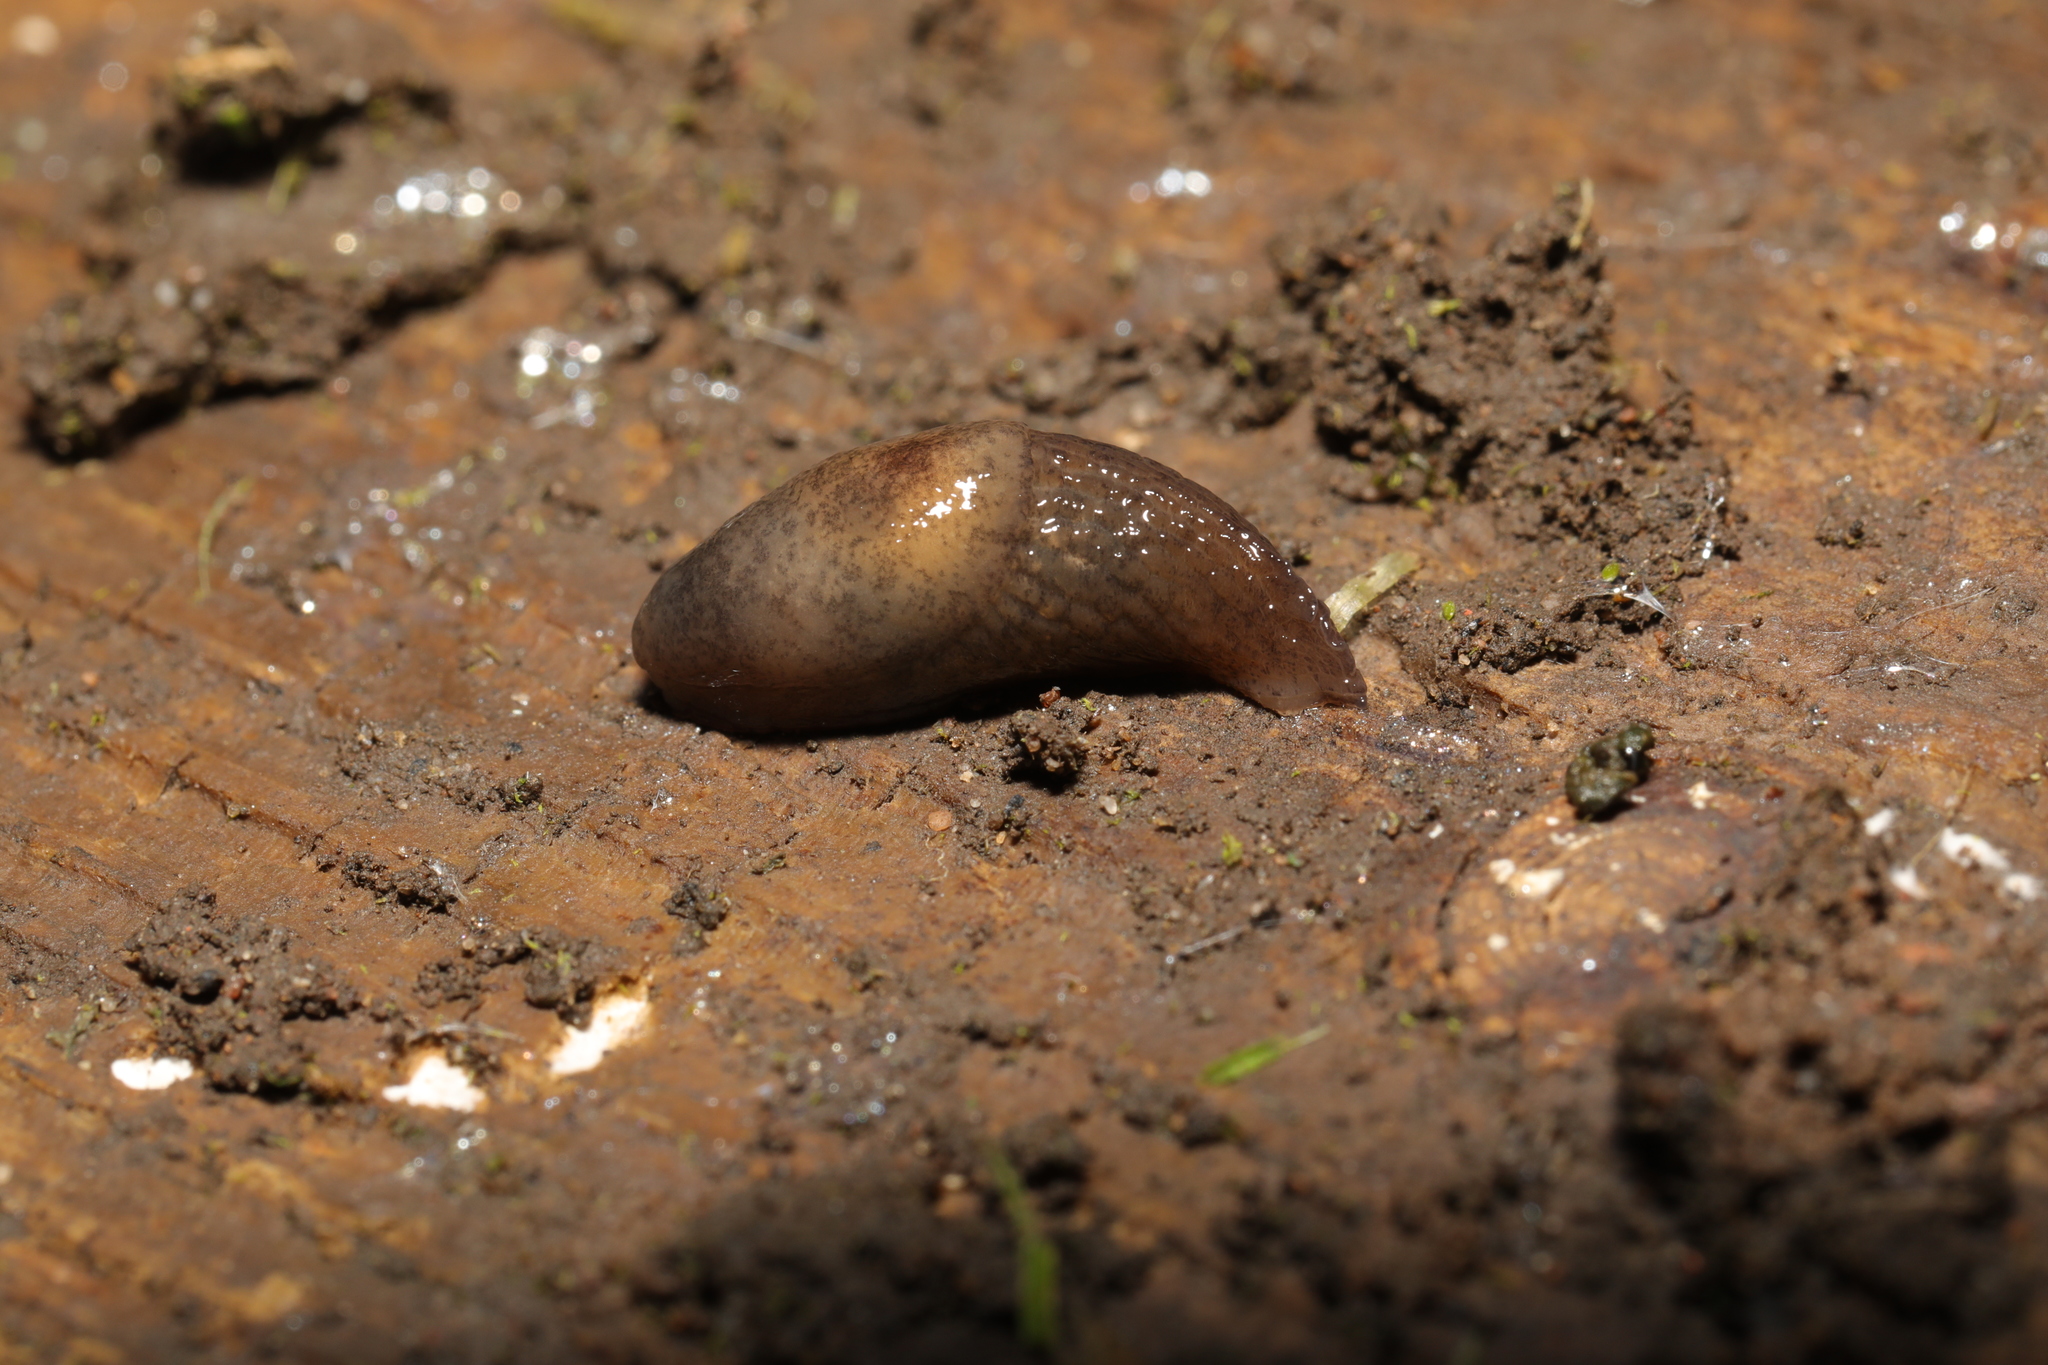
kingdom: Animalia
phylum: Mollusca
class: Gastropoda
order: Stylommatophora
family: Agriolimacidae
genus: Deroceras
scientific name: Deroceras reticulatum
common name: Gray field slug
